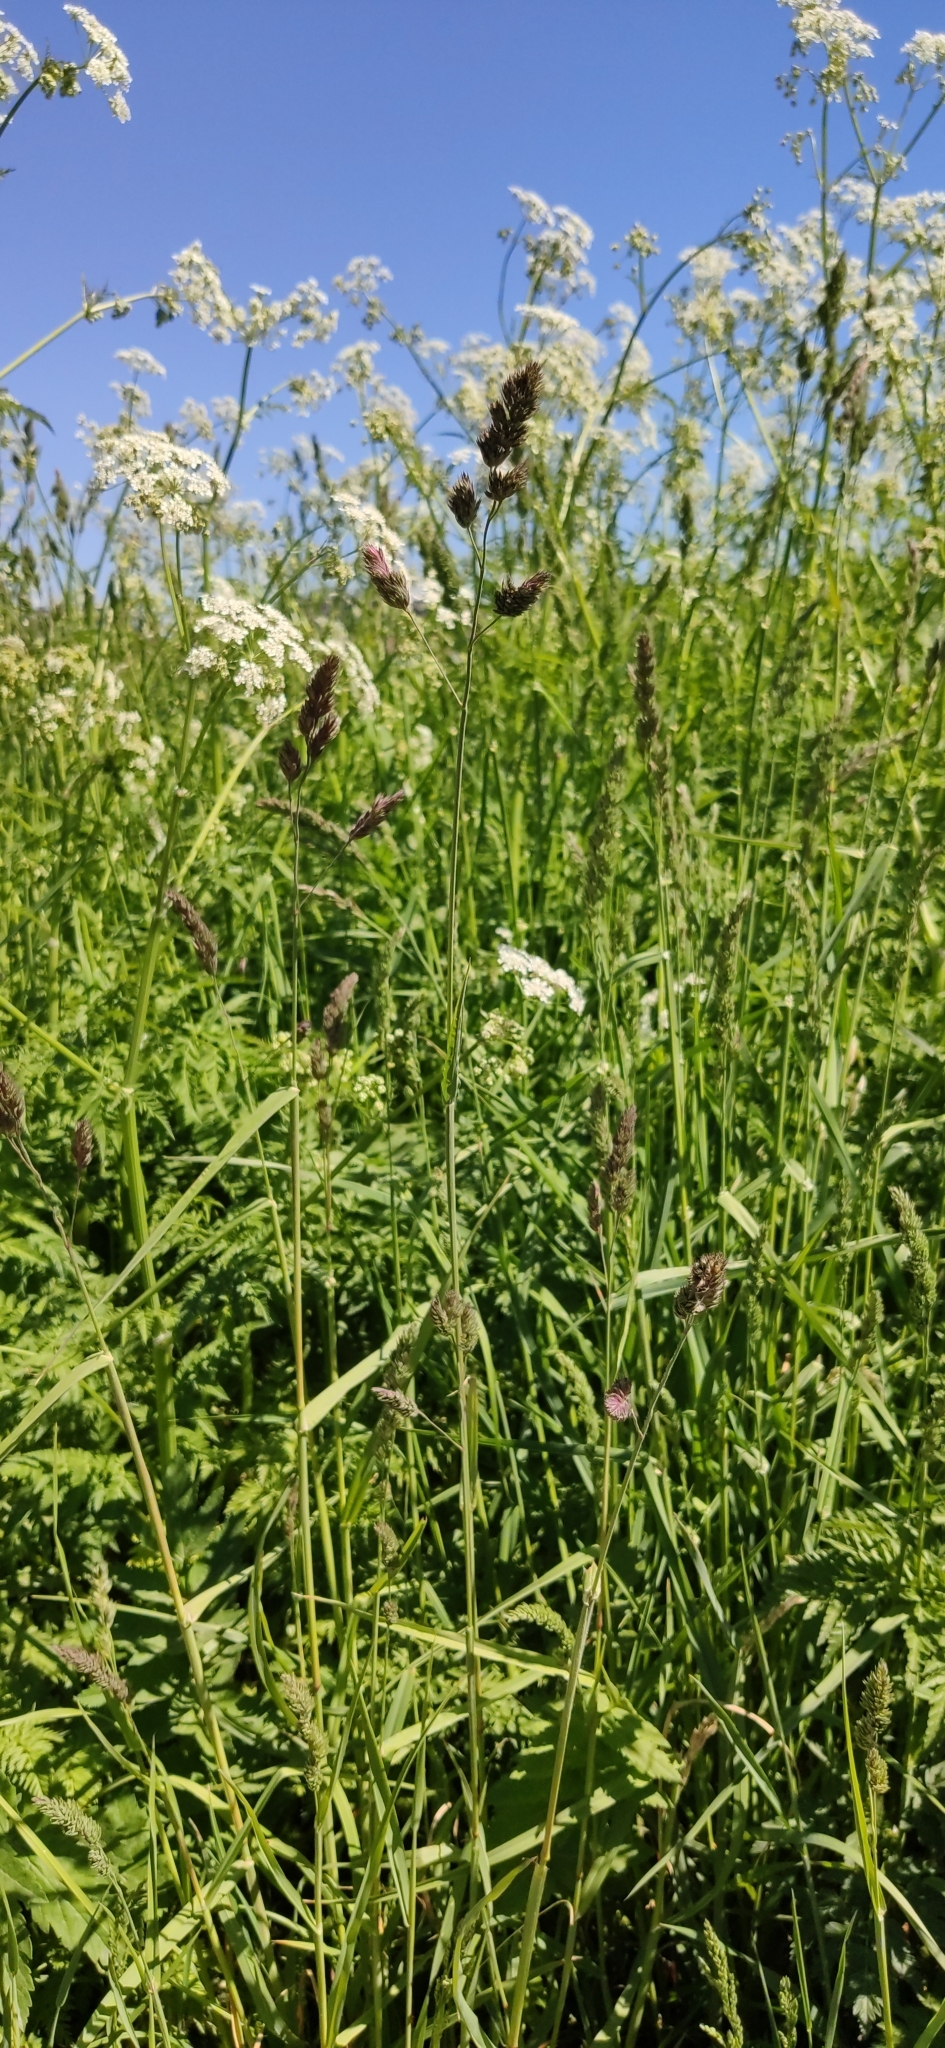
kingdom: Plantae
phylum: Tracheophyta
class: Liliopsida
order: Poales
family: Poaceae
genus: Dactylis
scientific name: Dactylis glomerata
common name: Orchardgrass
